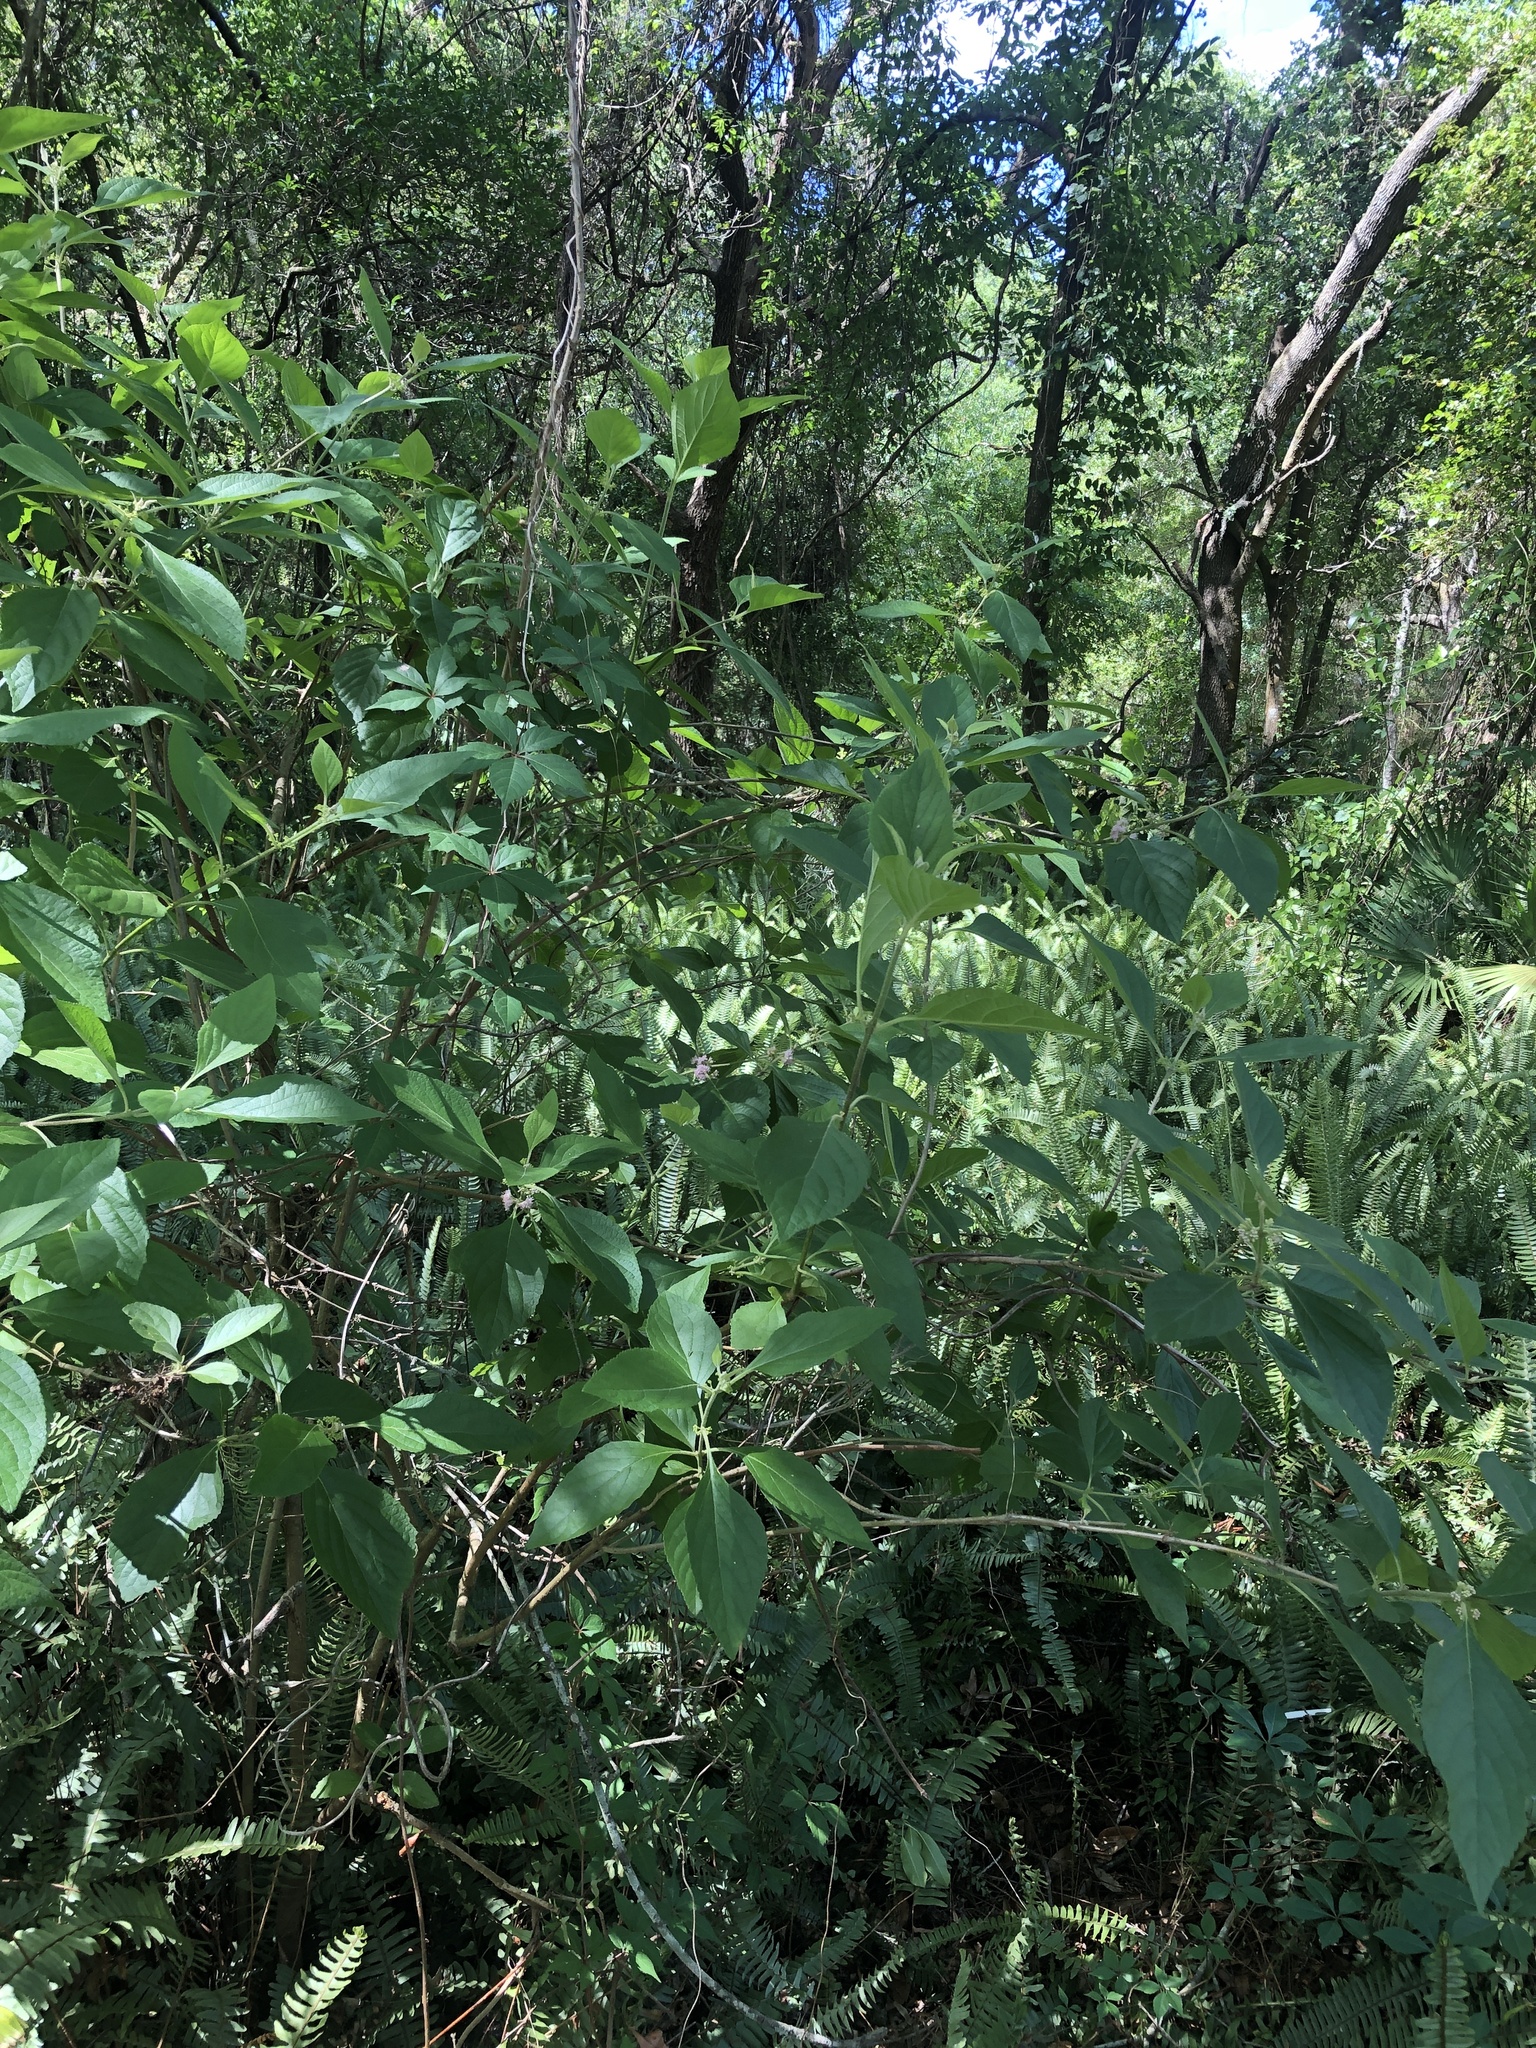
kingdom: Plantae
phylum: Tracheophyta
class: Magnoliopsida
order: Lamiales
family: Lamiaceae
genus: Callicarpa
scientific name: Callicarpa americana
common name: American beautyberry
